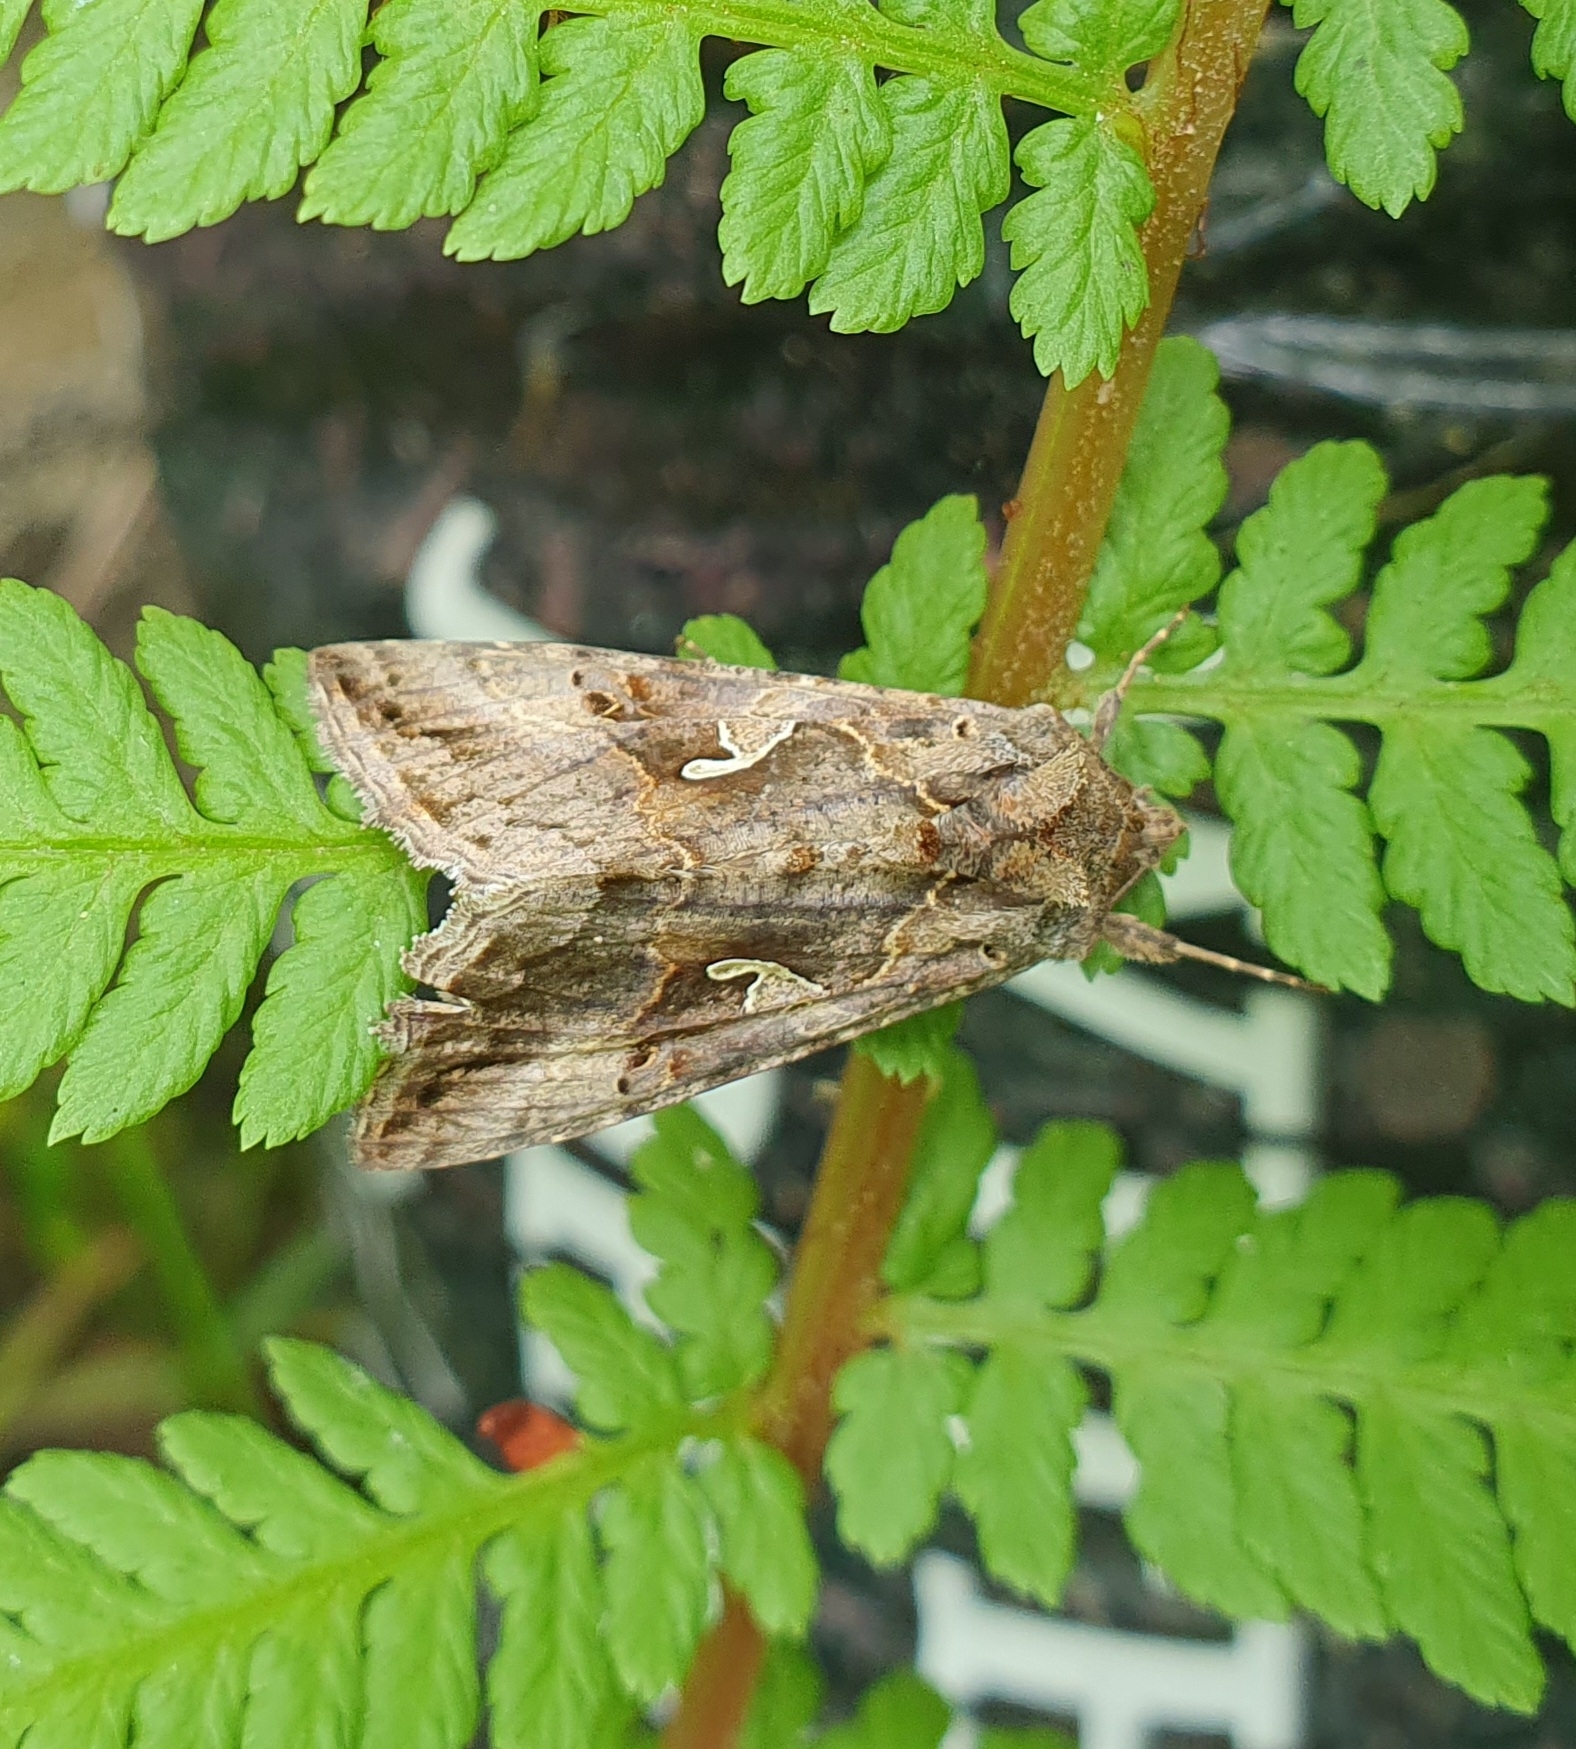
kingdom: Animalia
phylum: Arthropoda
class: Insecta
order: Lepidoptera
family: Noctuidae
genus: Autographa
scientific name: Autographa gamma
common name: Silver y
